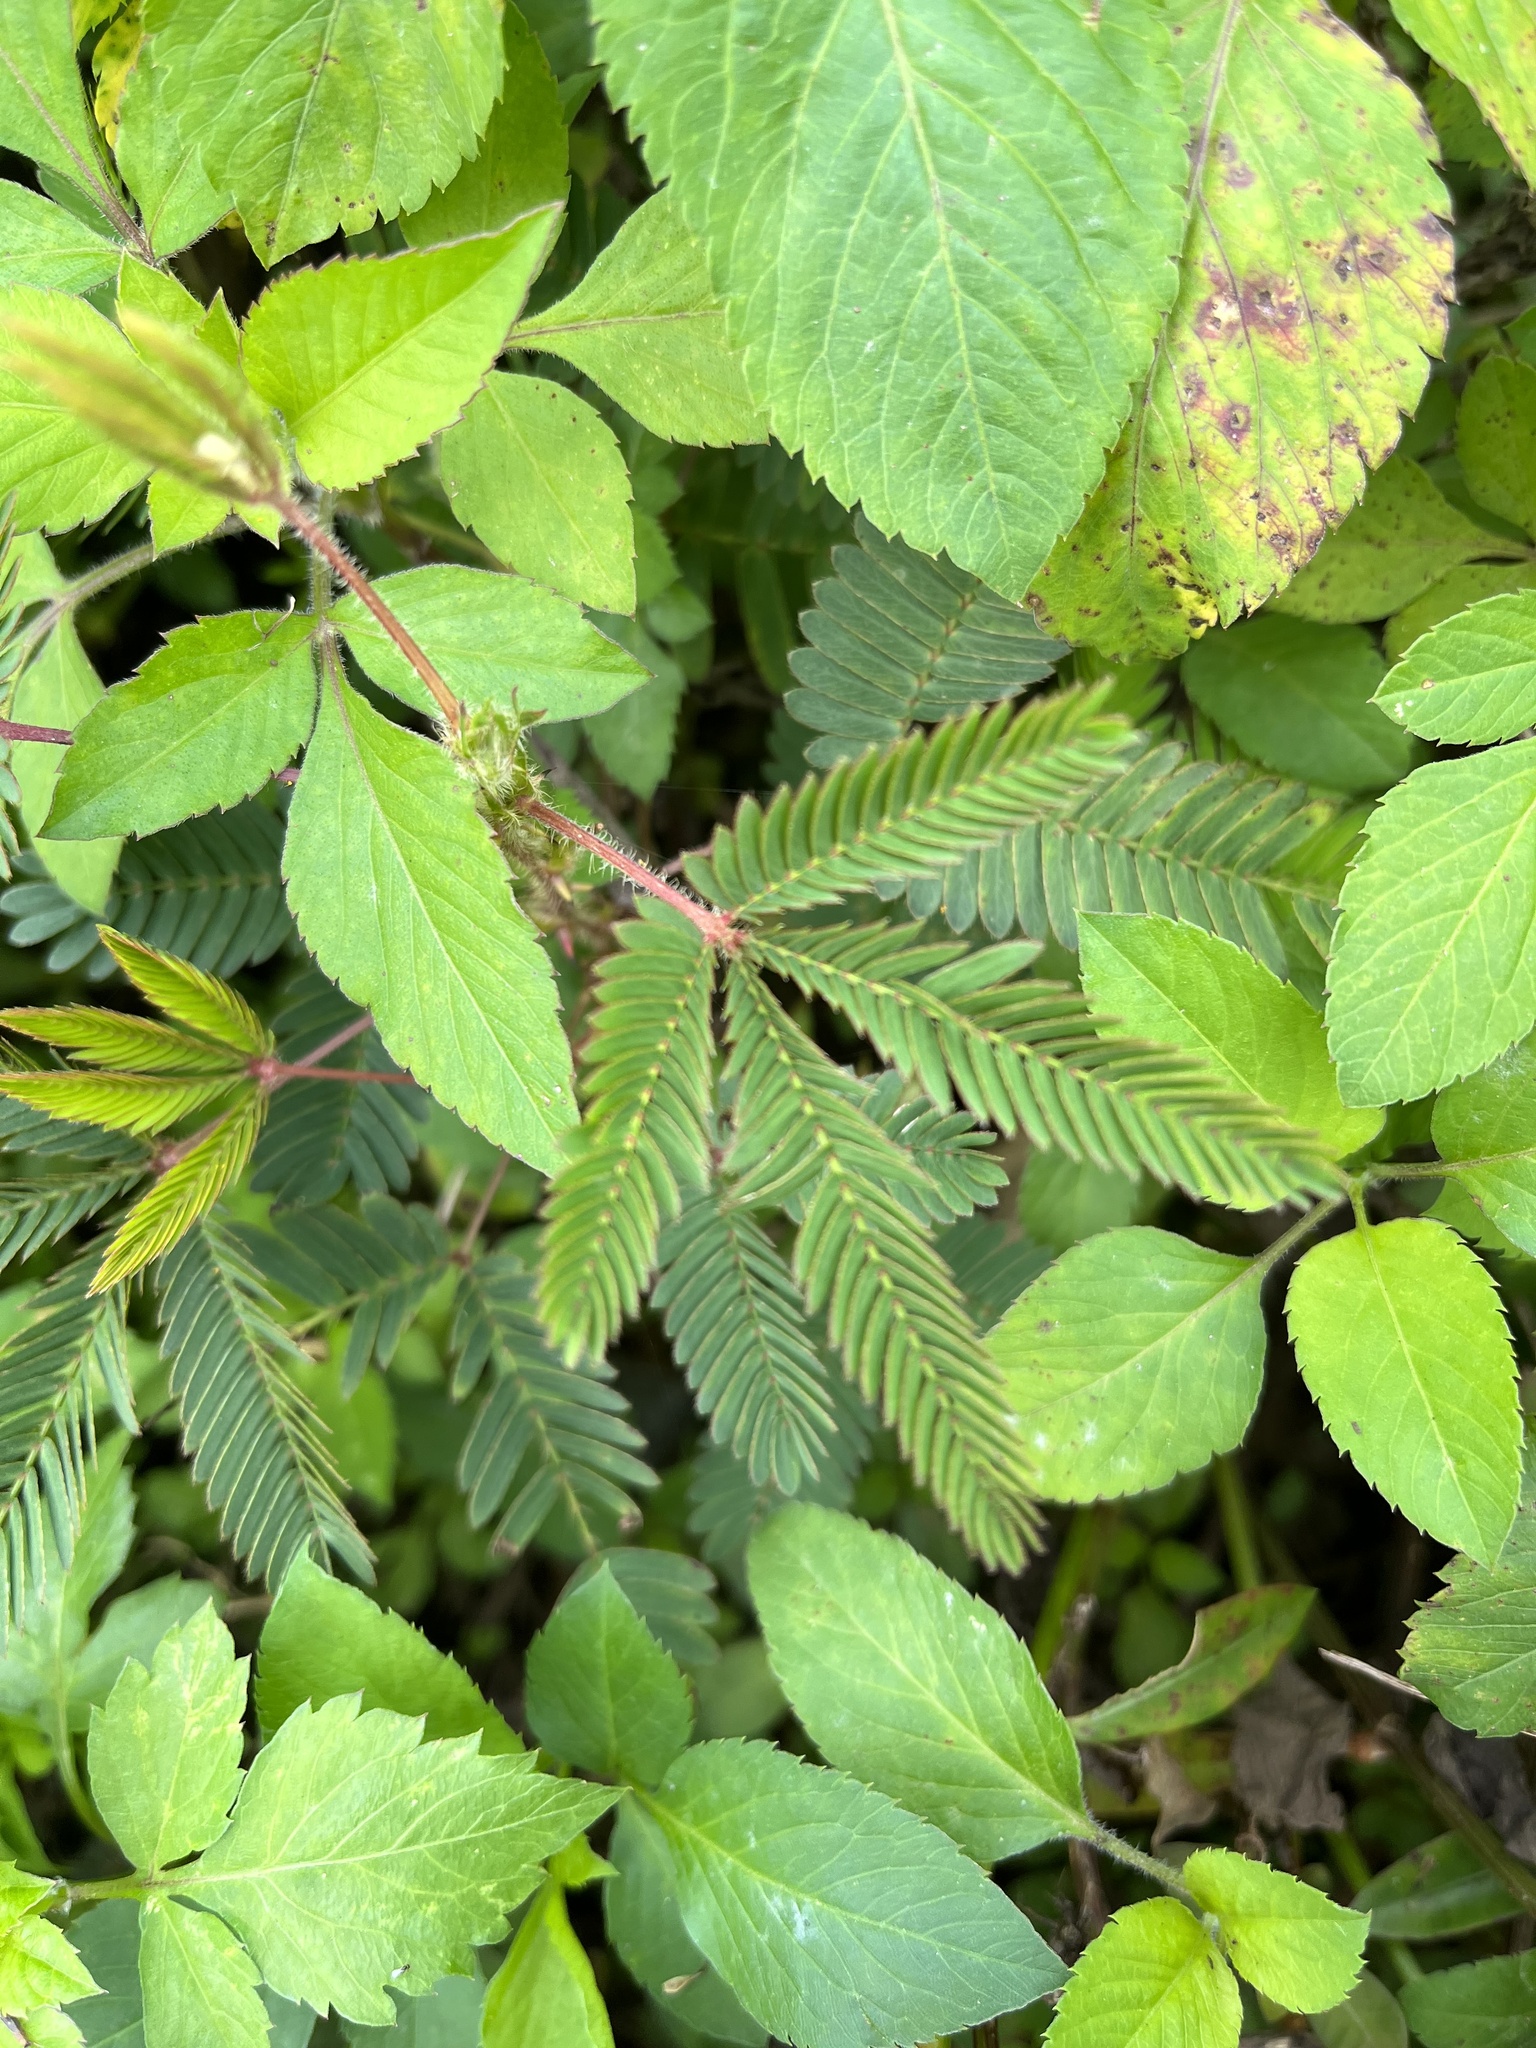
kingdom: Plantae
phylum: Tracheophyta
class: Magnoliopsida
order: Fabales
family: Fabaceae
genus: Mimosa
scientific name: Mimosa pudica
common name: Sensitive plant
